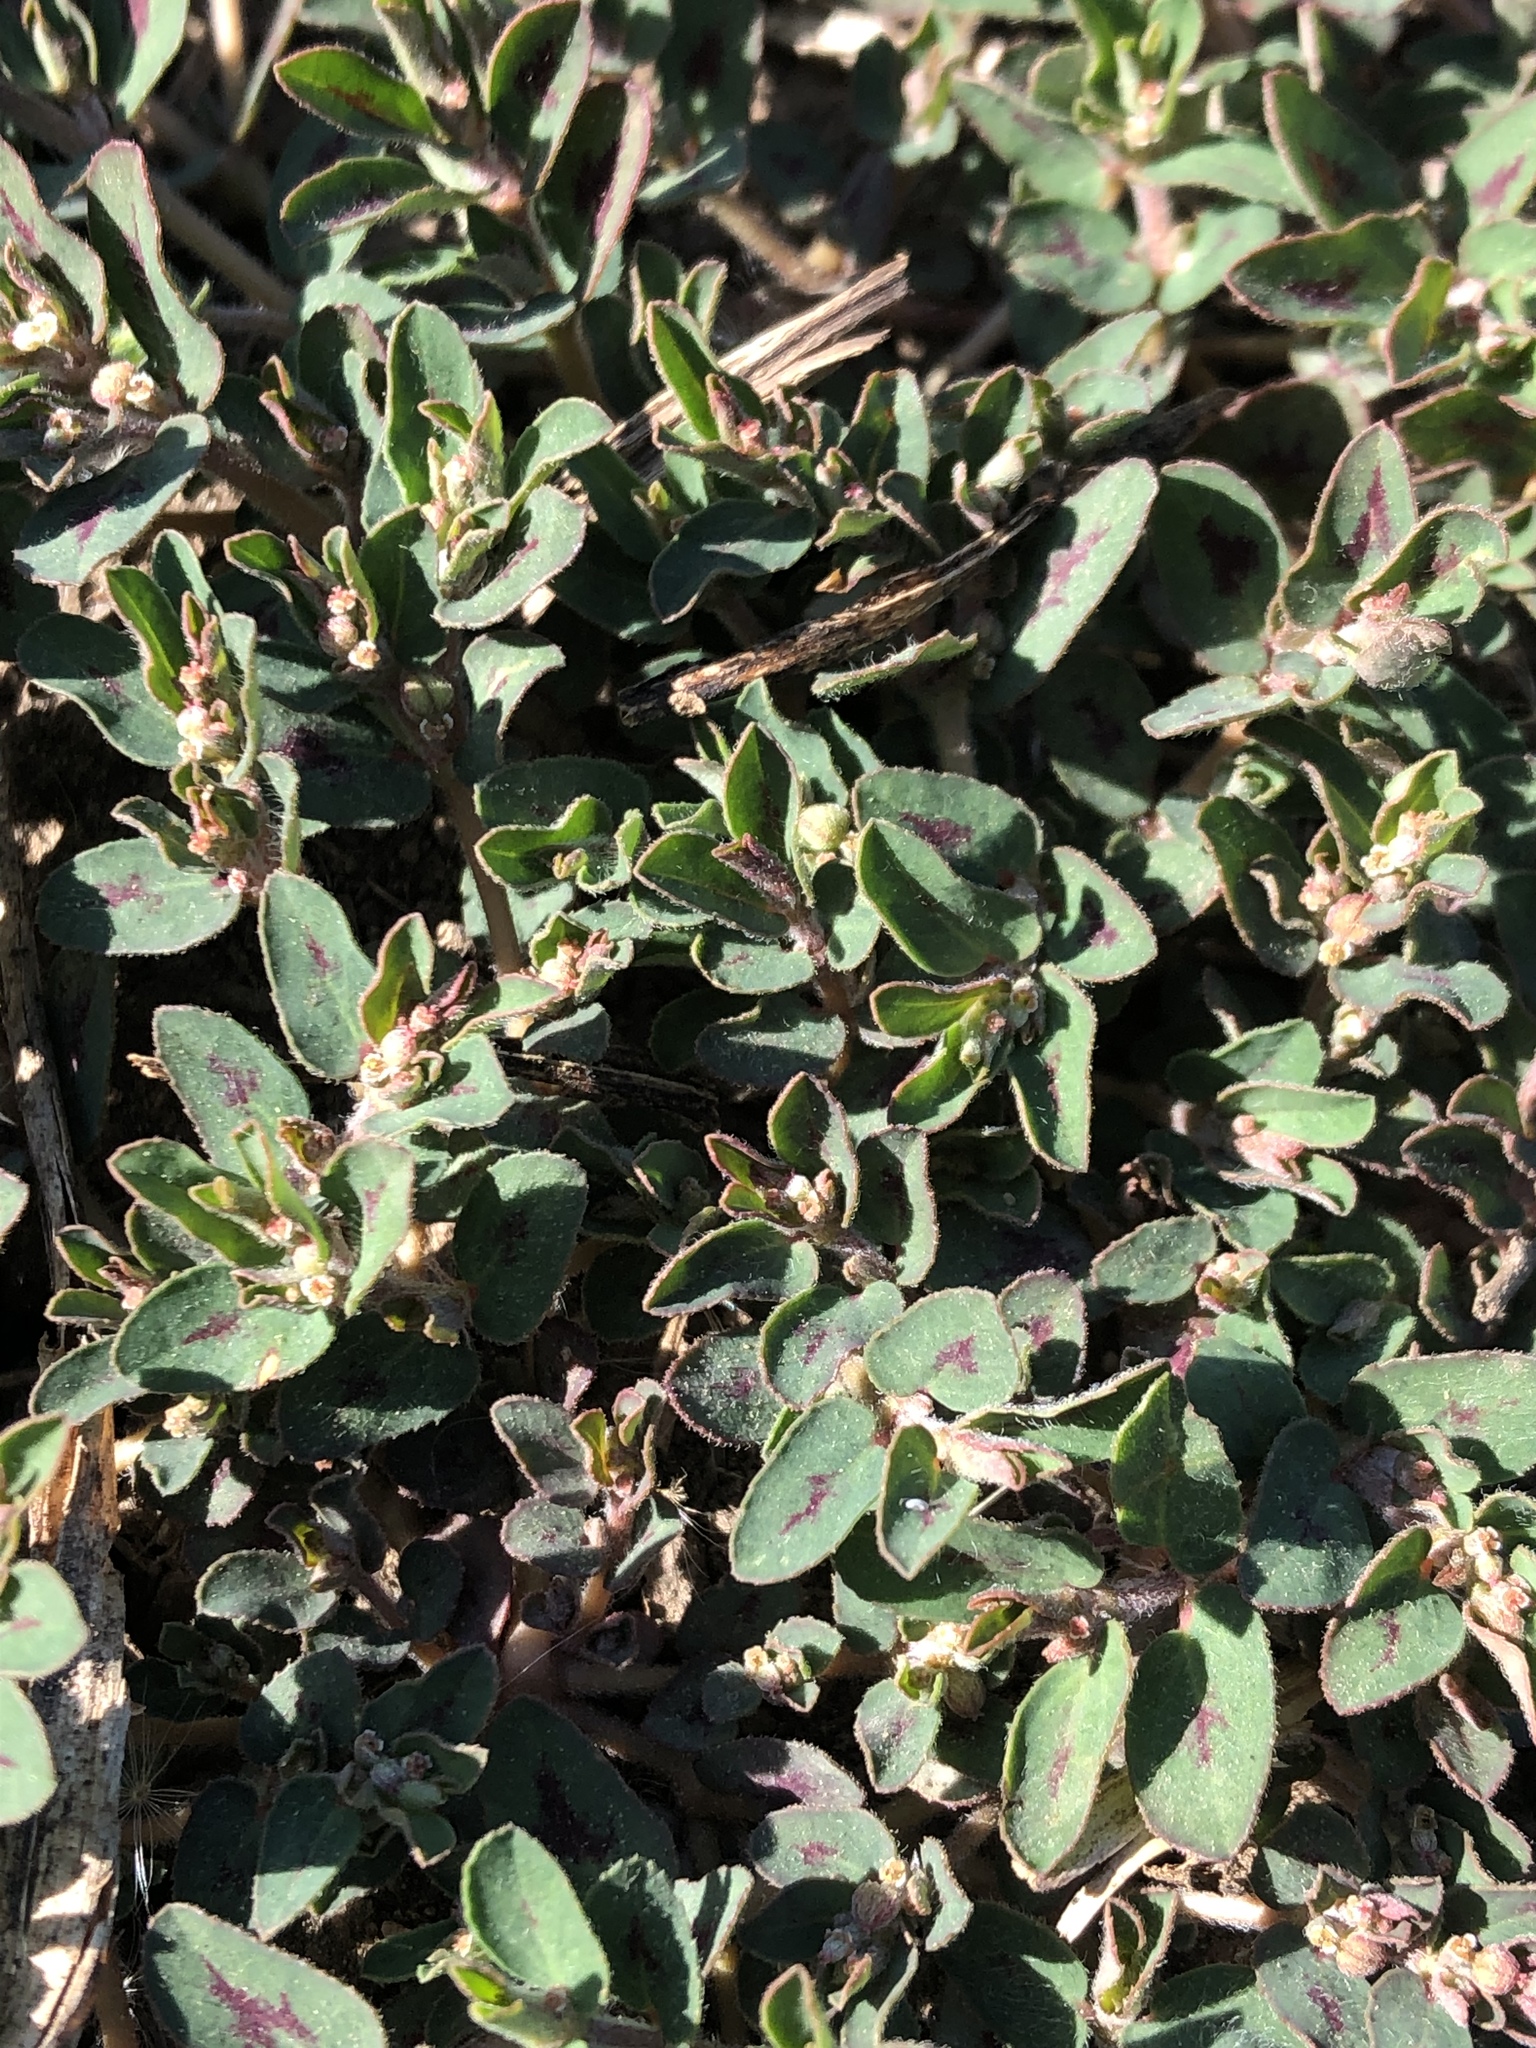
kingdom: Plantae
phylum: Tracheophyta
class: Magnoliopsida
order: Malpighiales
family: Euphorbiaceae
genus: Euphorbia
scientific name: Euphorbia maculata
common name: Spotted spurge
